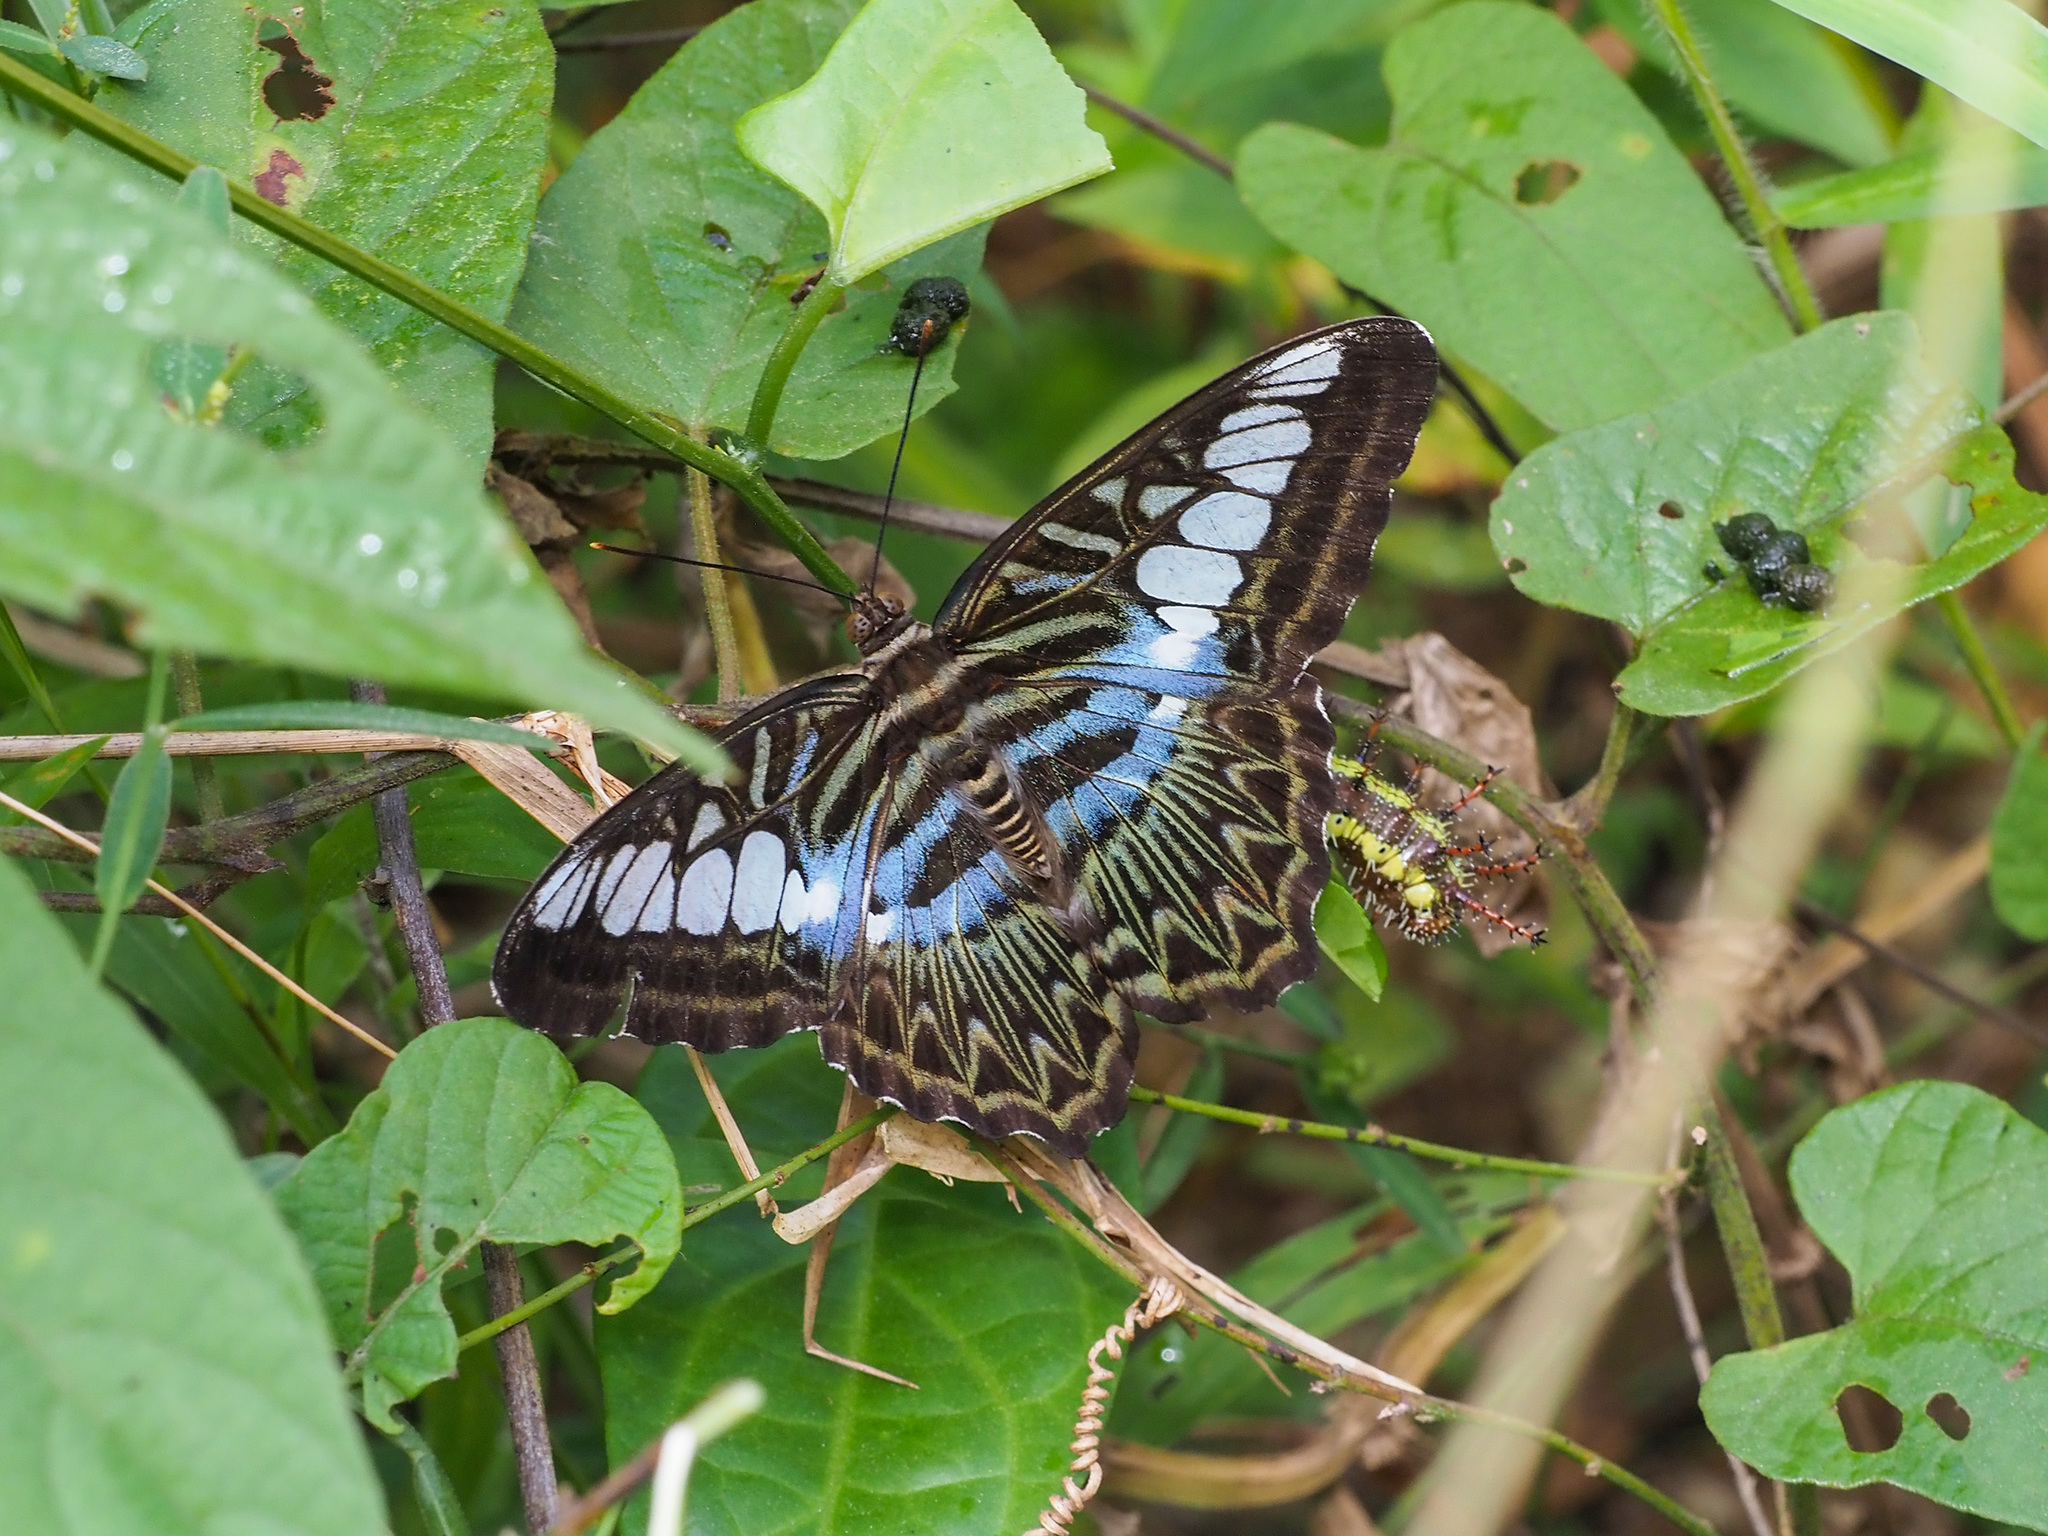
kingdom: Animalia
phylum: Arthropoda
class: Insecta
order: Lepidoptera
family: Nymphalidae
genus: Kallima
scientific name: Kallima sylvia
